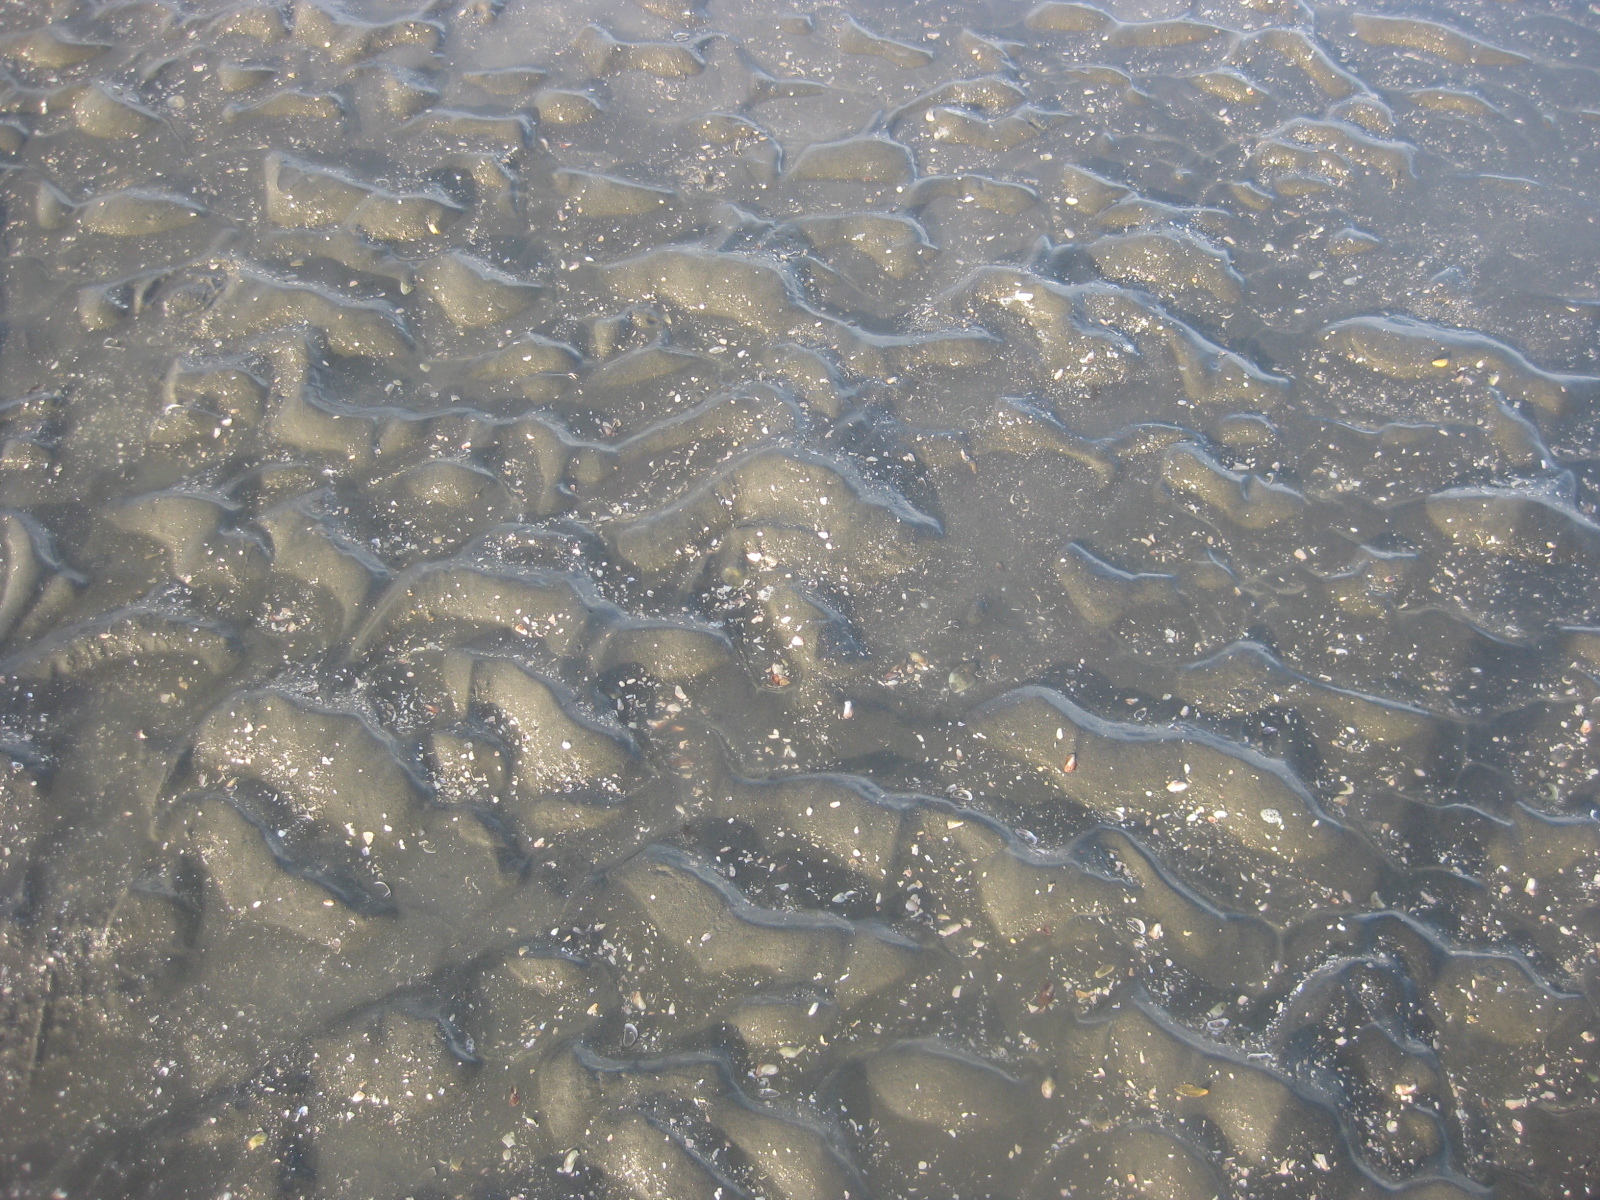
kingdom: Animalia
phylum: Echinodermata
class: Asteroidea
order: Forcipulatida
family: Asteriidae
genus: Coscinasterias
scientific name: Coscinasterias muricata
